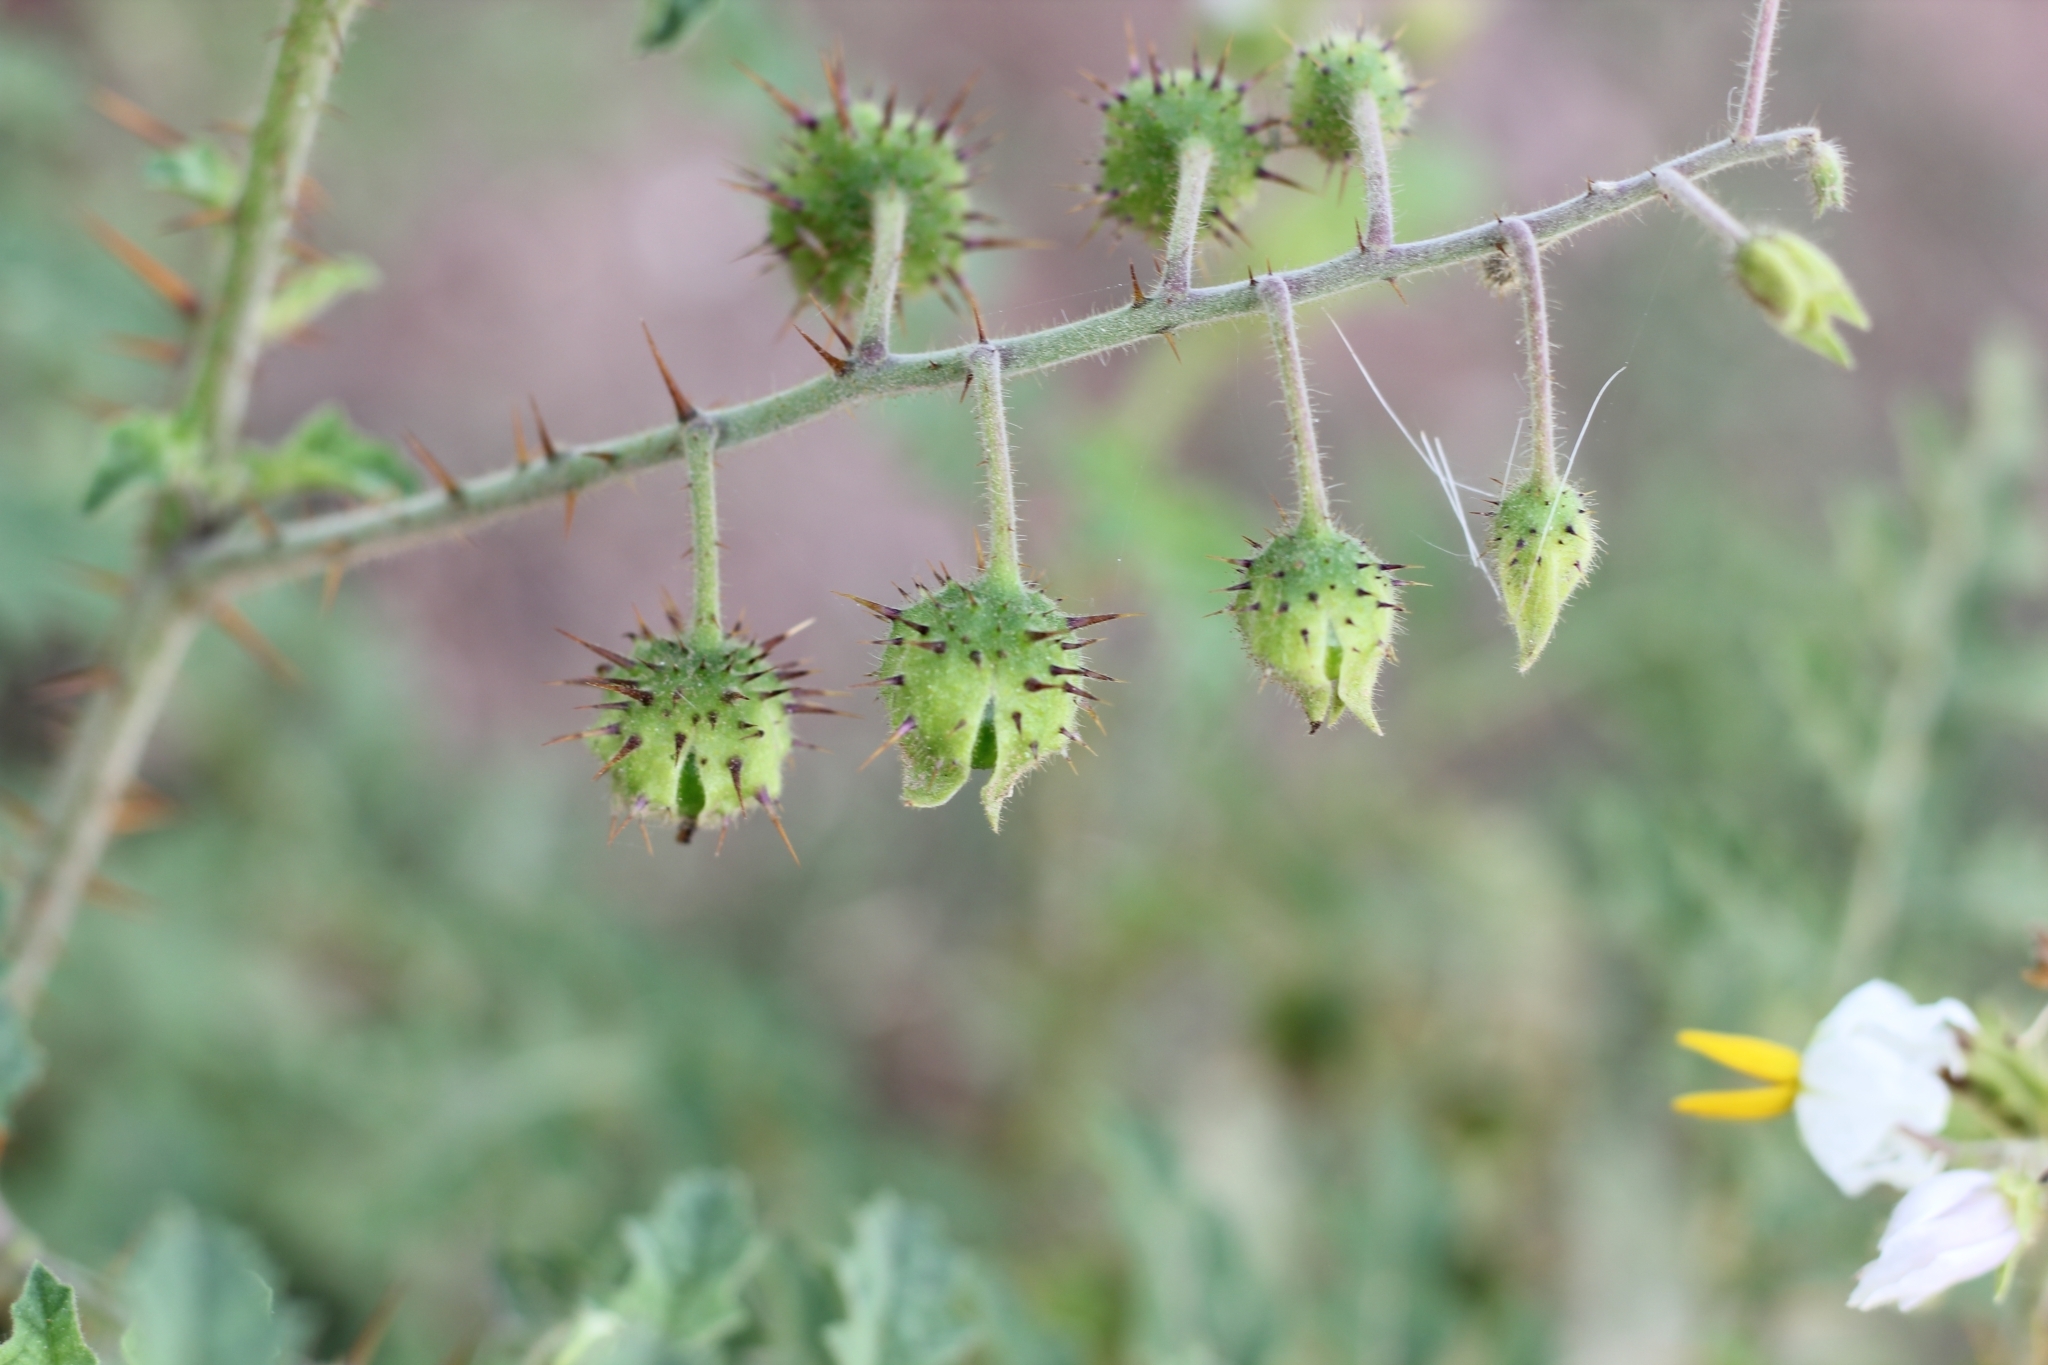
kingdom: Plantae
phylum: Tracheophyta
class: Magnoliopsida
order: Solanales
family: Solanaceae
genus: Solanum
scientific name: Solanum sisymbriifolium
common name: Red buffalo-bur
